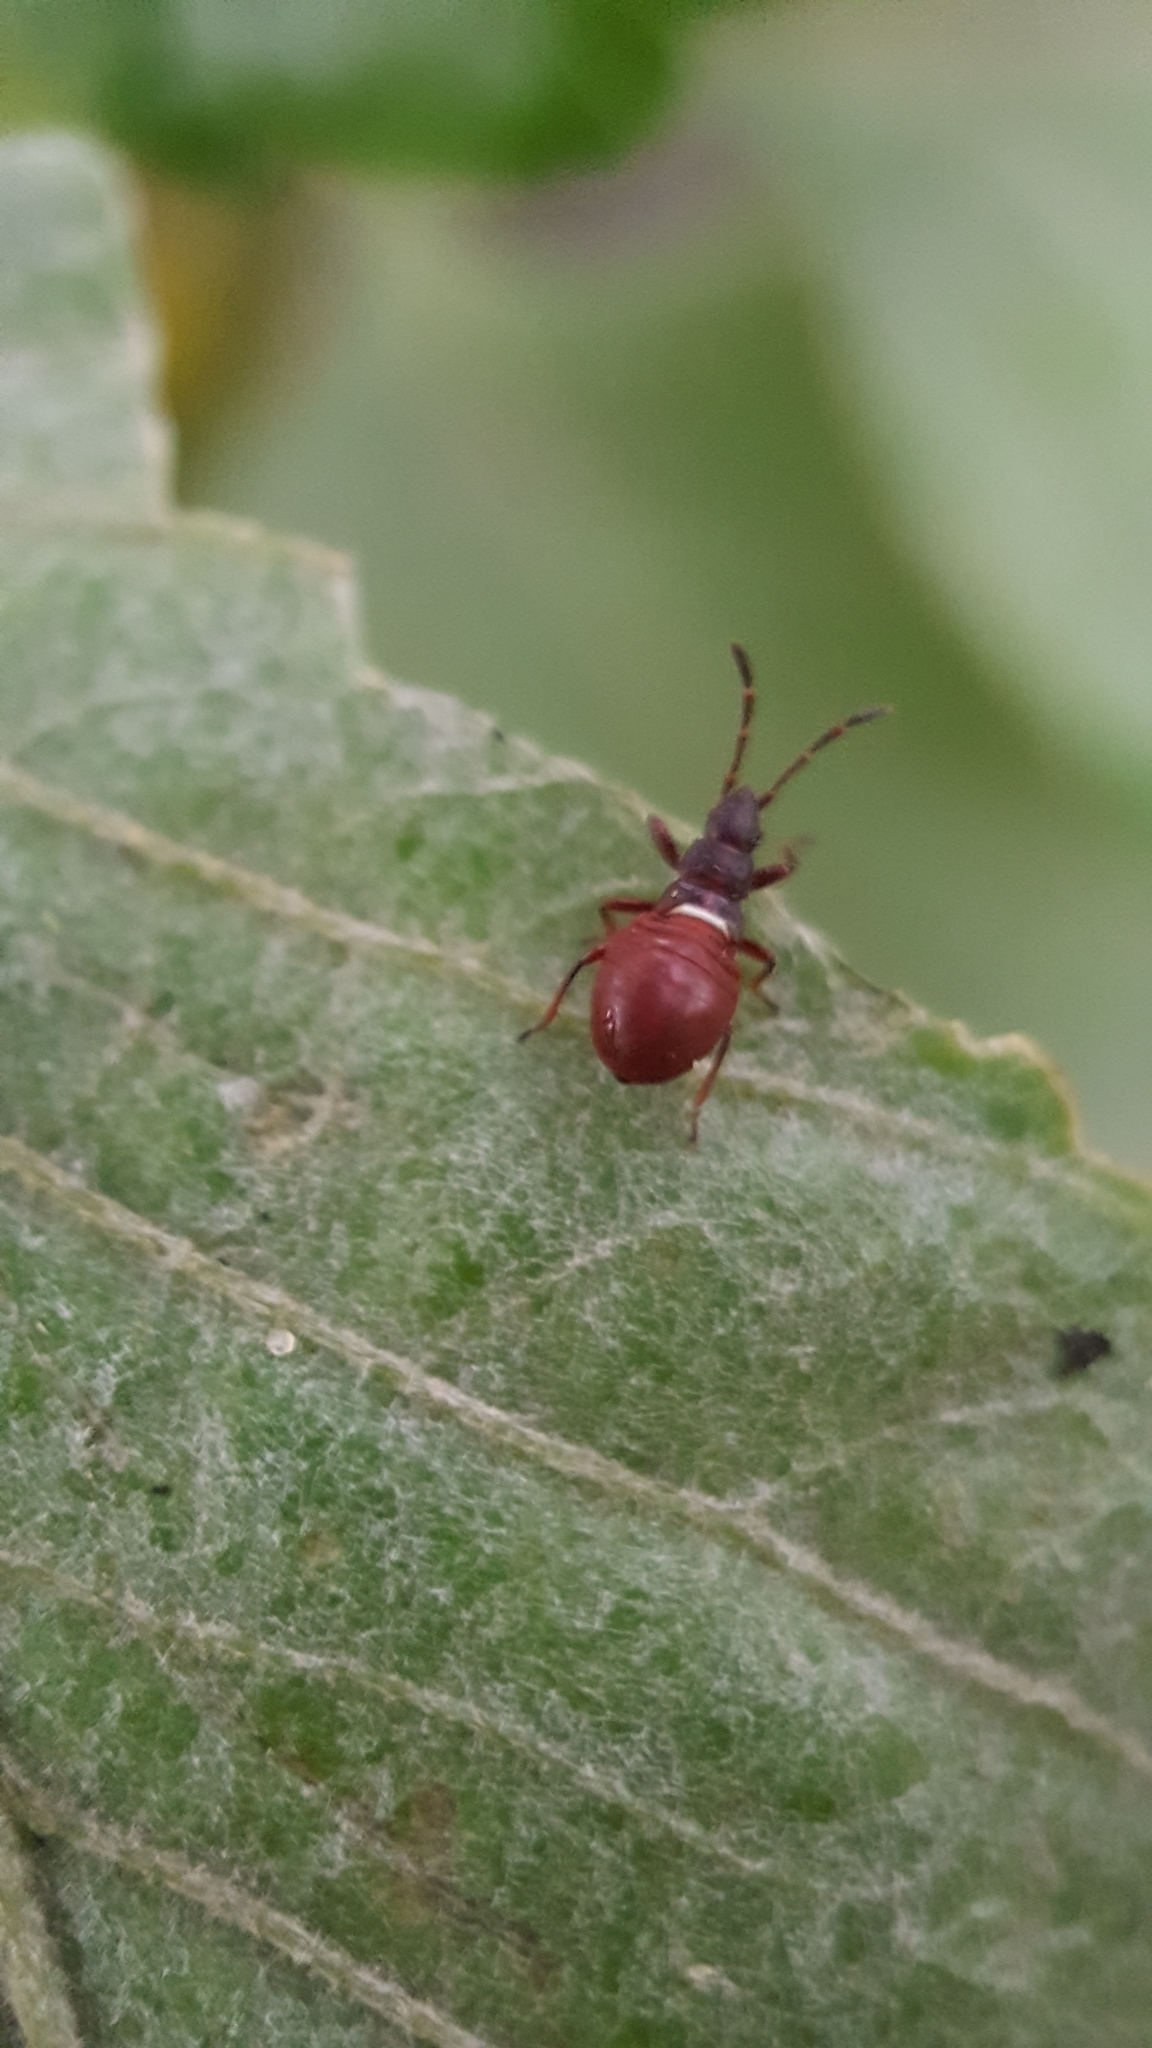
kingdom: Animalia
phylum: Arthropoda
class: Insecta
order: Hemiptera
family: Oxycarenidae
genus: Oxycarenus
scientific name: Oxycarenus lavaterae
